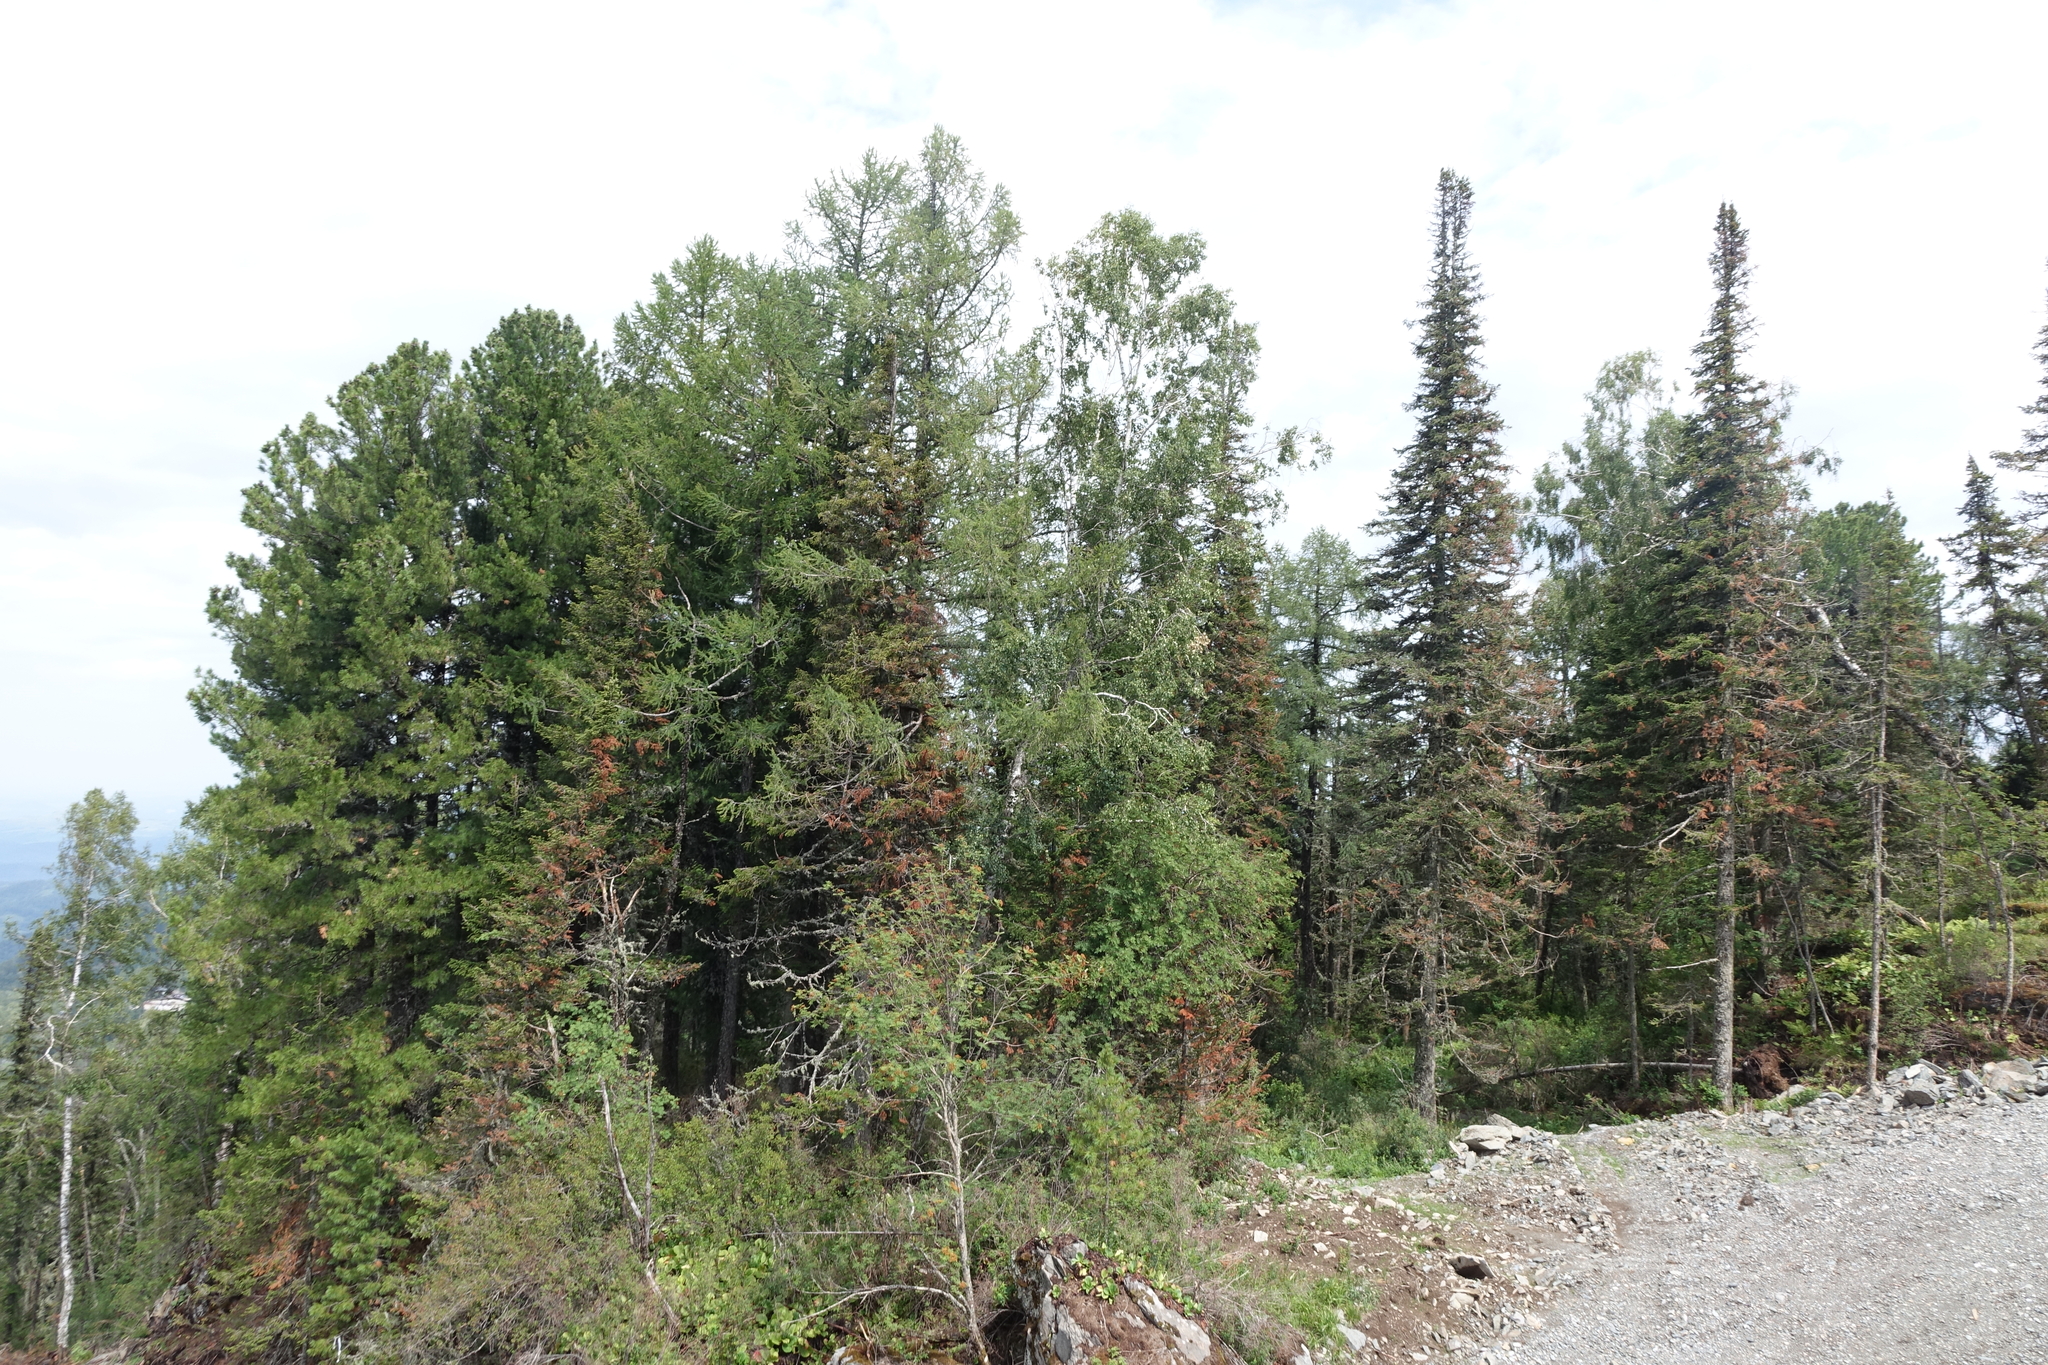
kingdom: Plantae
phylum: Tracheophyta
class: Pinopsida
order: Pinales
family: Pinaceae
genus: Pinus
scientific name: Pinus sibirica
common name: Siberian pine
